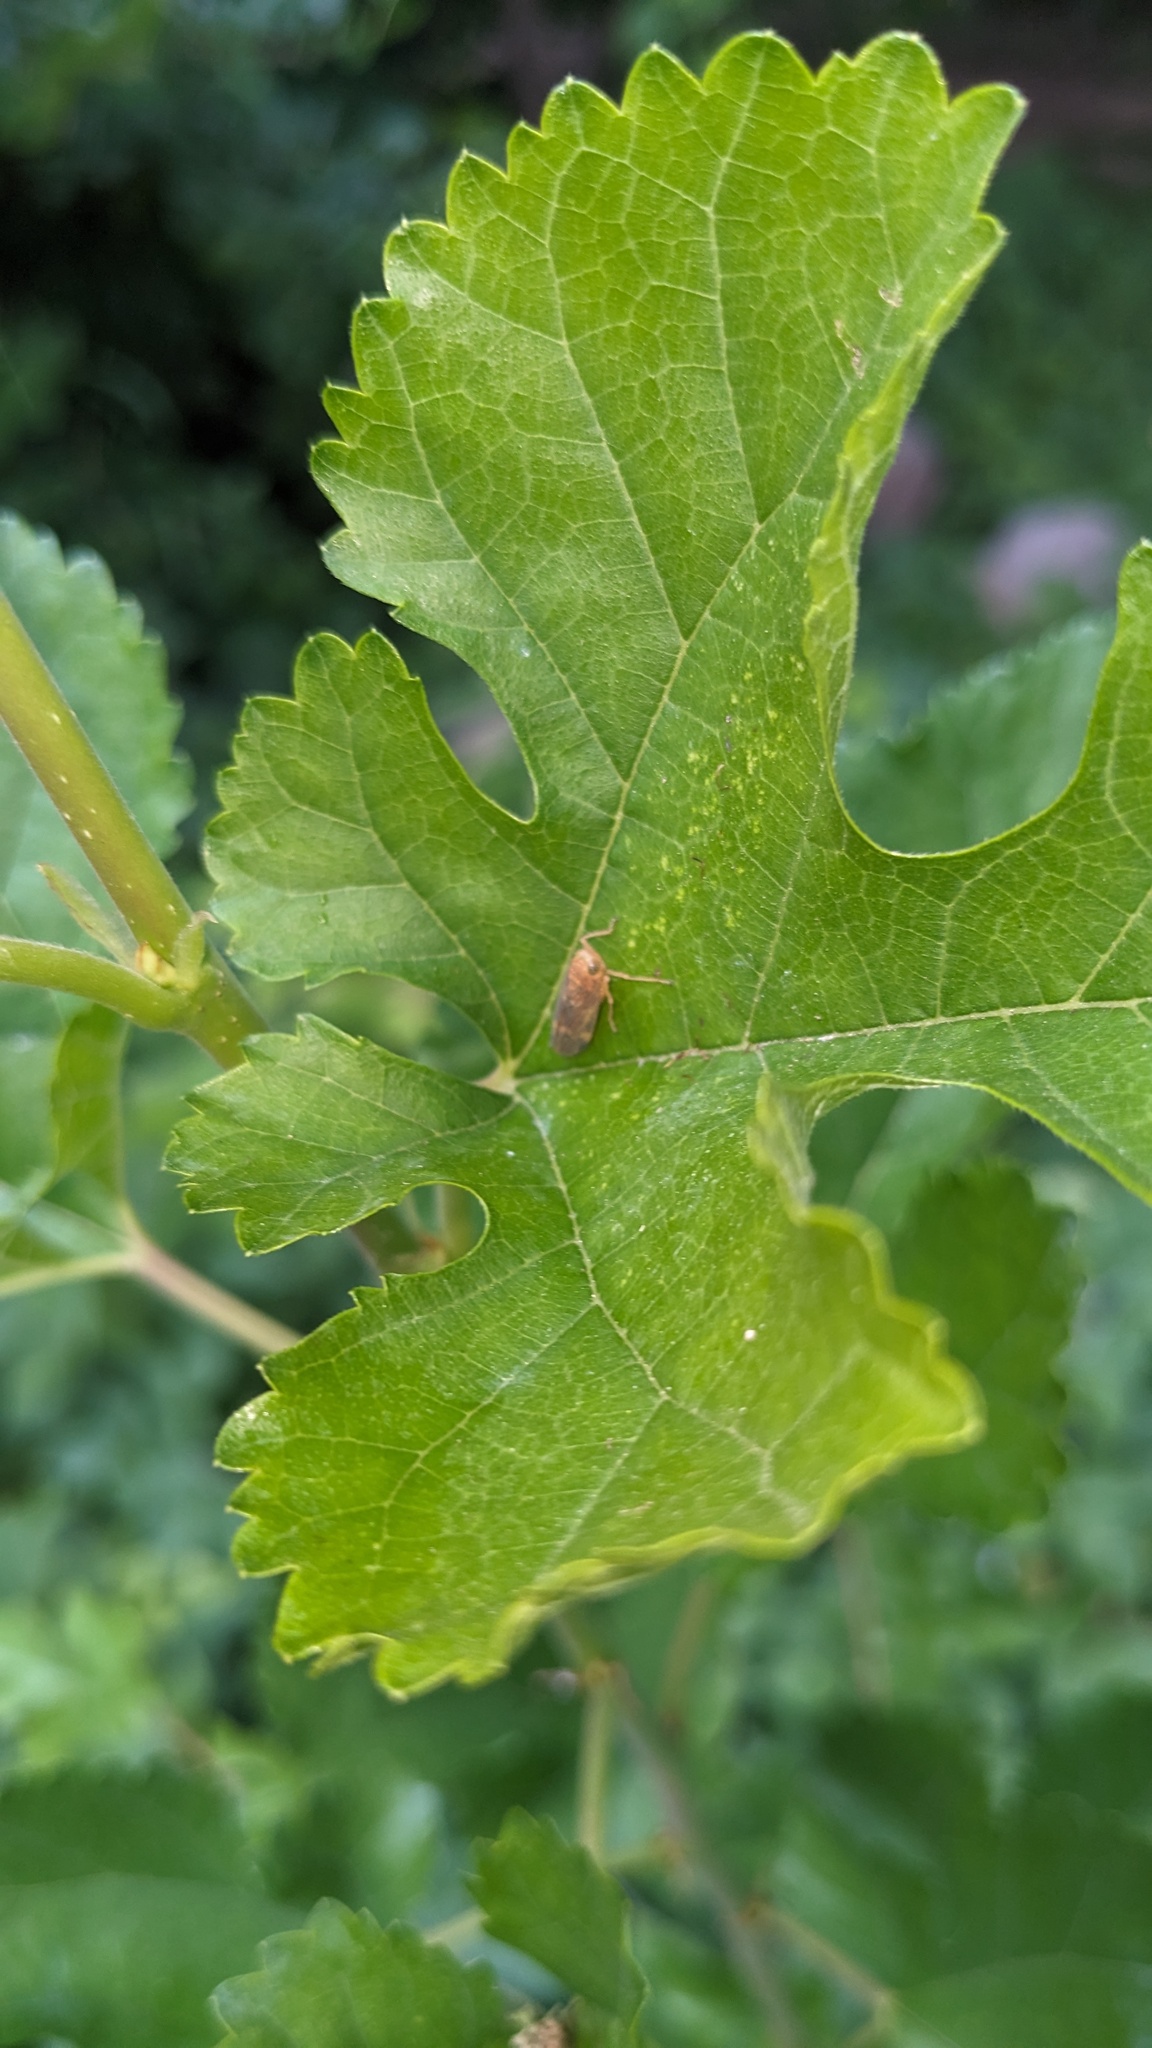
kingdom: Animalia
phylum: Arthropoda
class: Insecta
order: Hemiptera
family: Cicadellidae
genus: Jikradia
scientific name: Jikradia olitoria
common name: Coppery leafhopper
